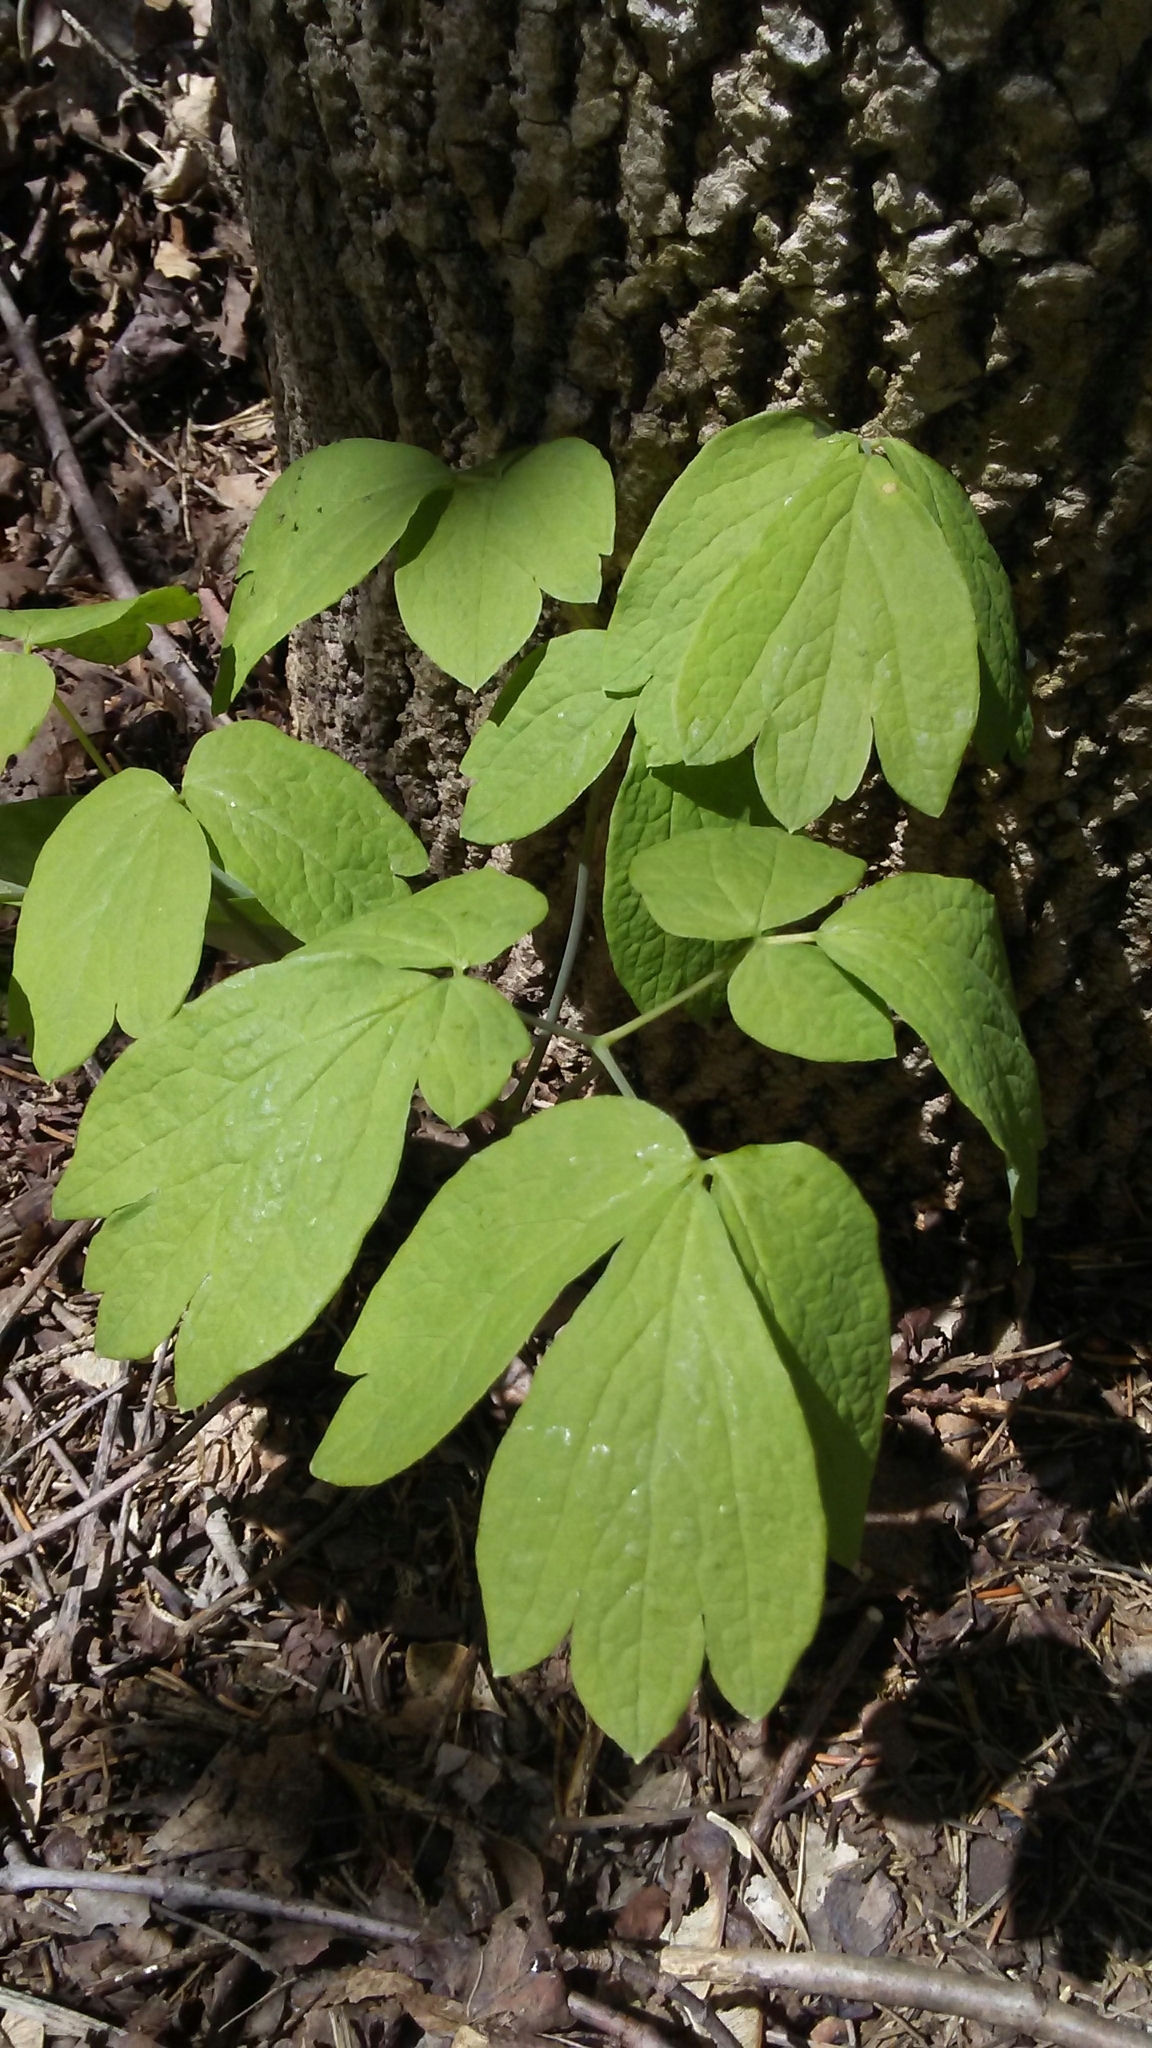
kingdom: Plantae
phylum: Tracheophyta
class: Magnoliopsida
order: Ranunculales
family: Berberidaceae
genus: Caulophyllum
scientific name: Caulophyllum thalictroides
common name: Blue cohosh
